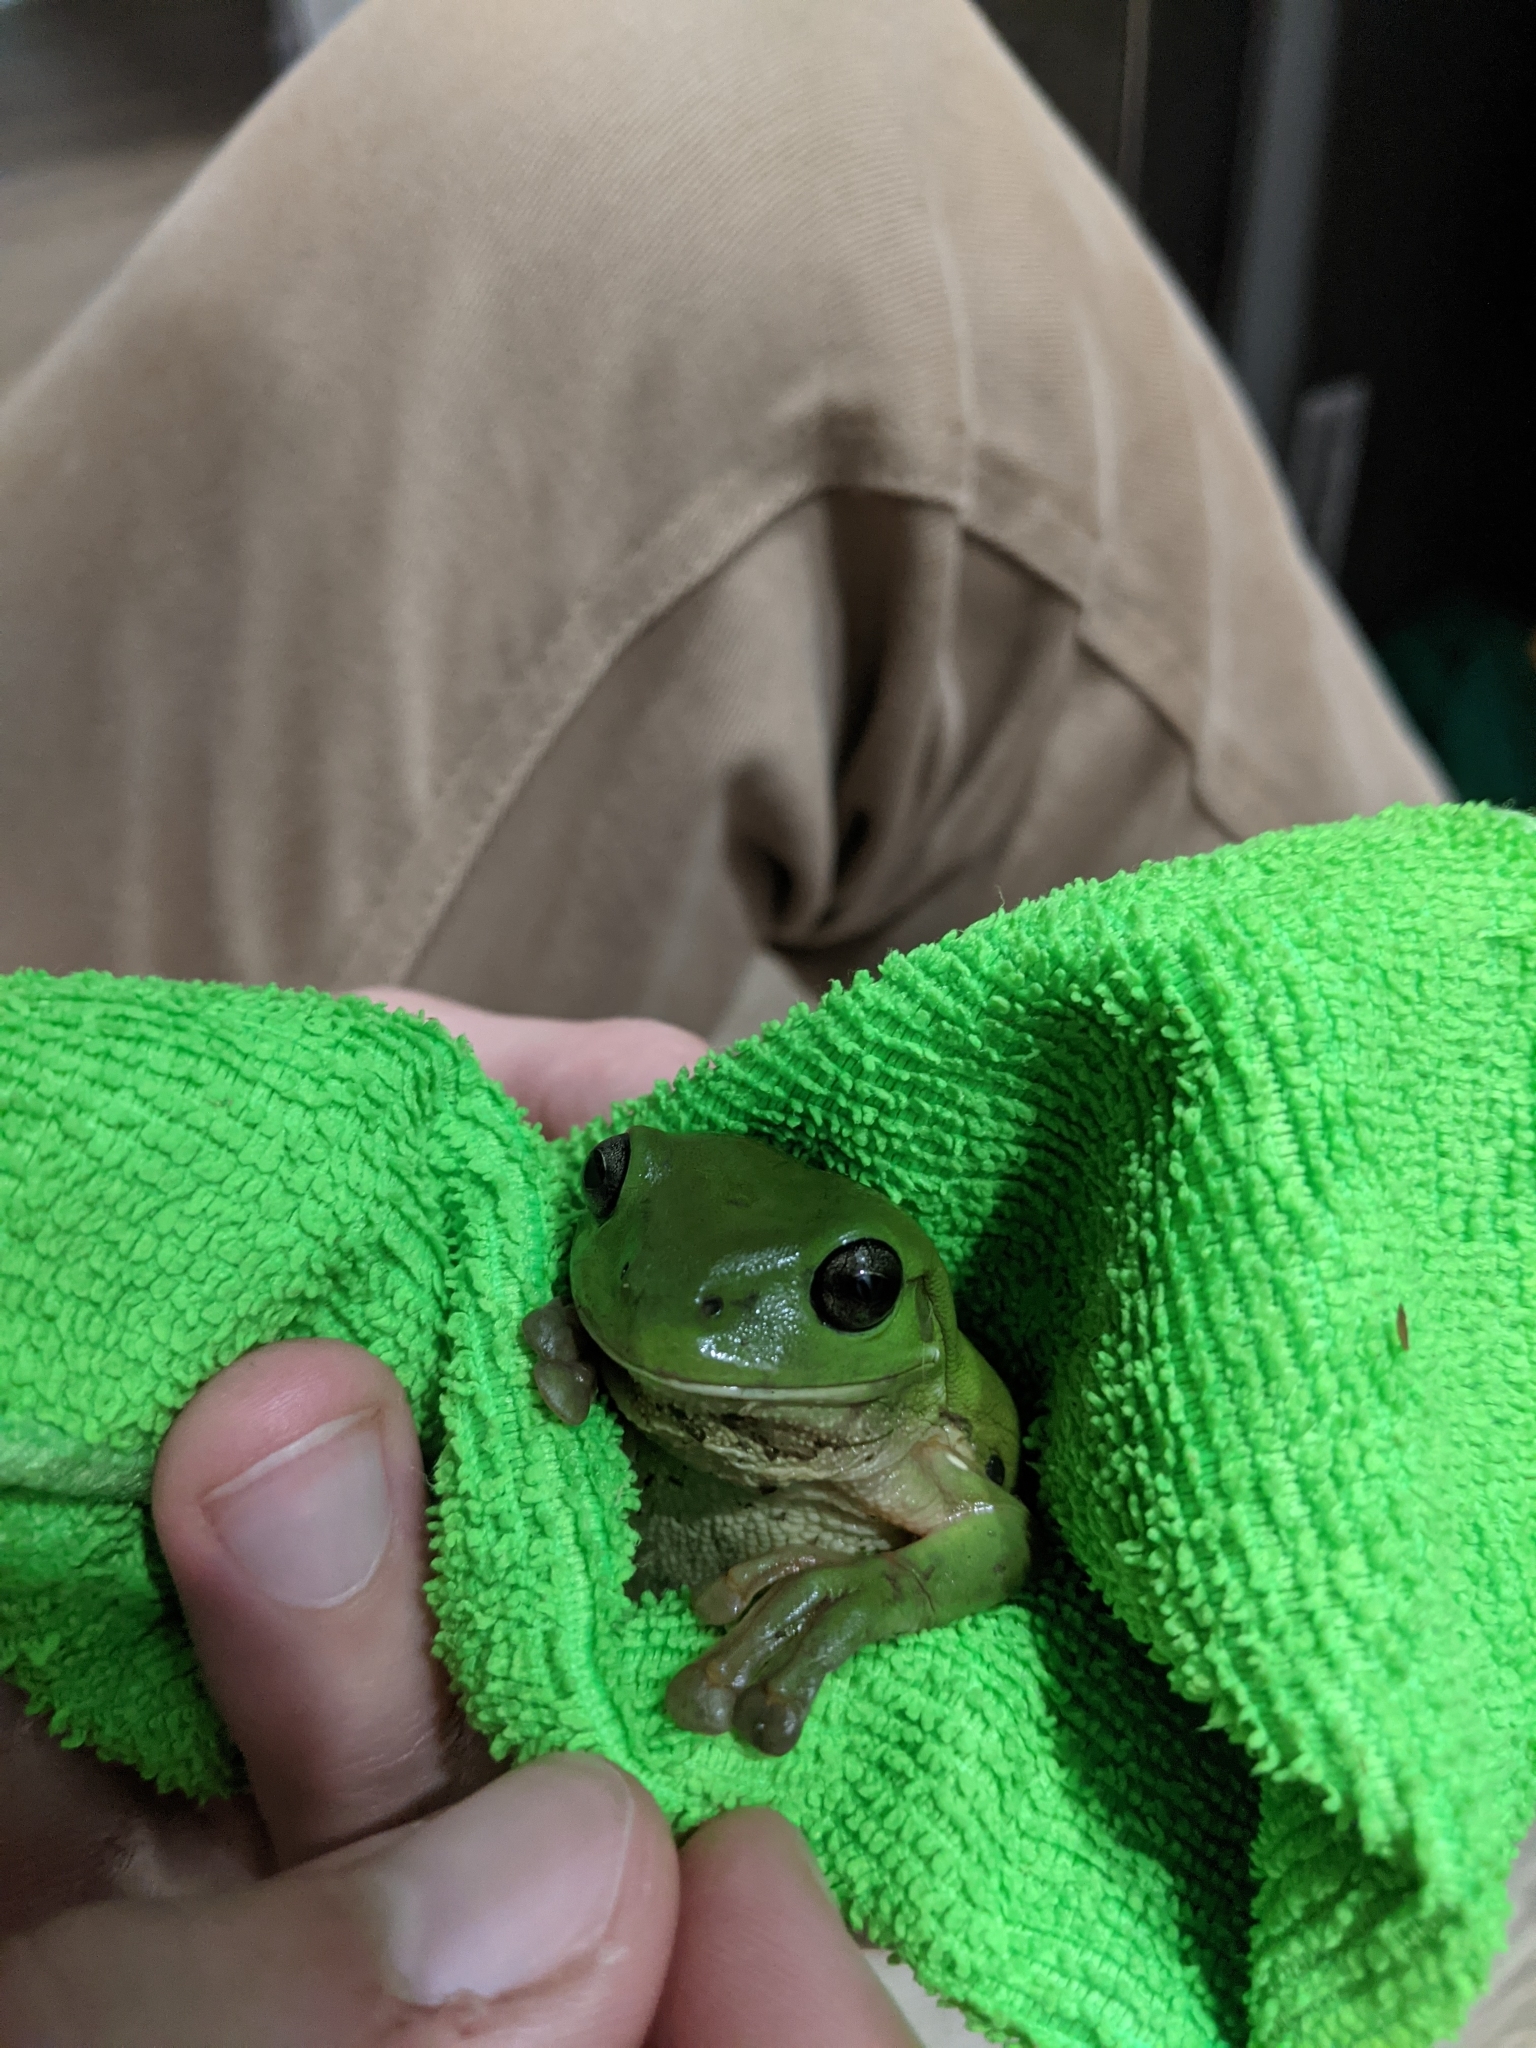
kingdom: Animalia
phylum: Chordata
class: Amphibia
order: Anura
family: Pelodryadidae
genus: Ranoidea
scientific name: Ranoidea caerulea
